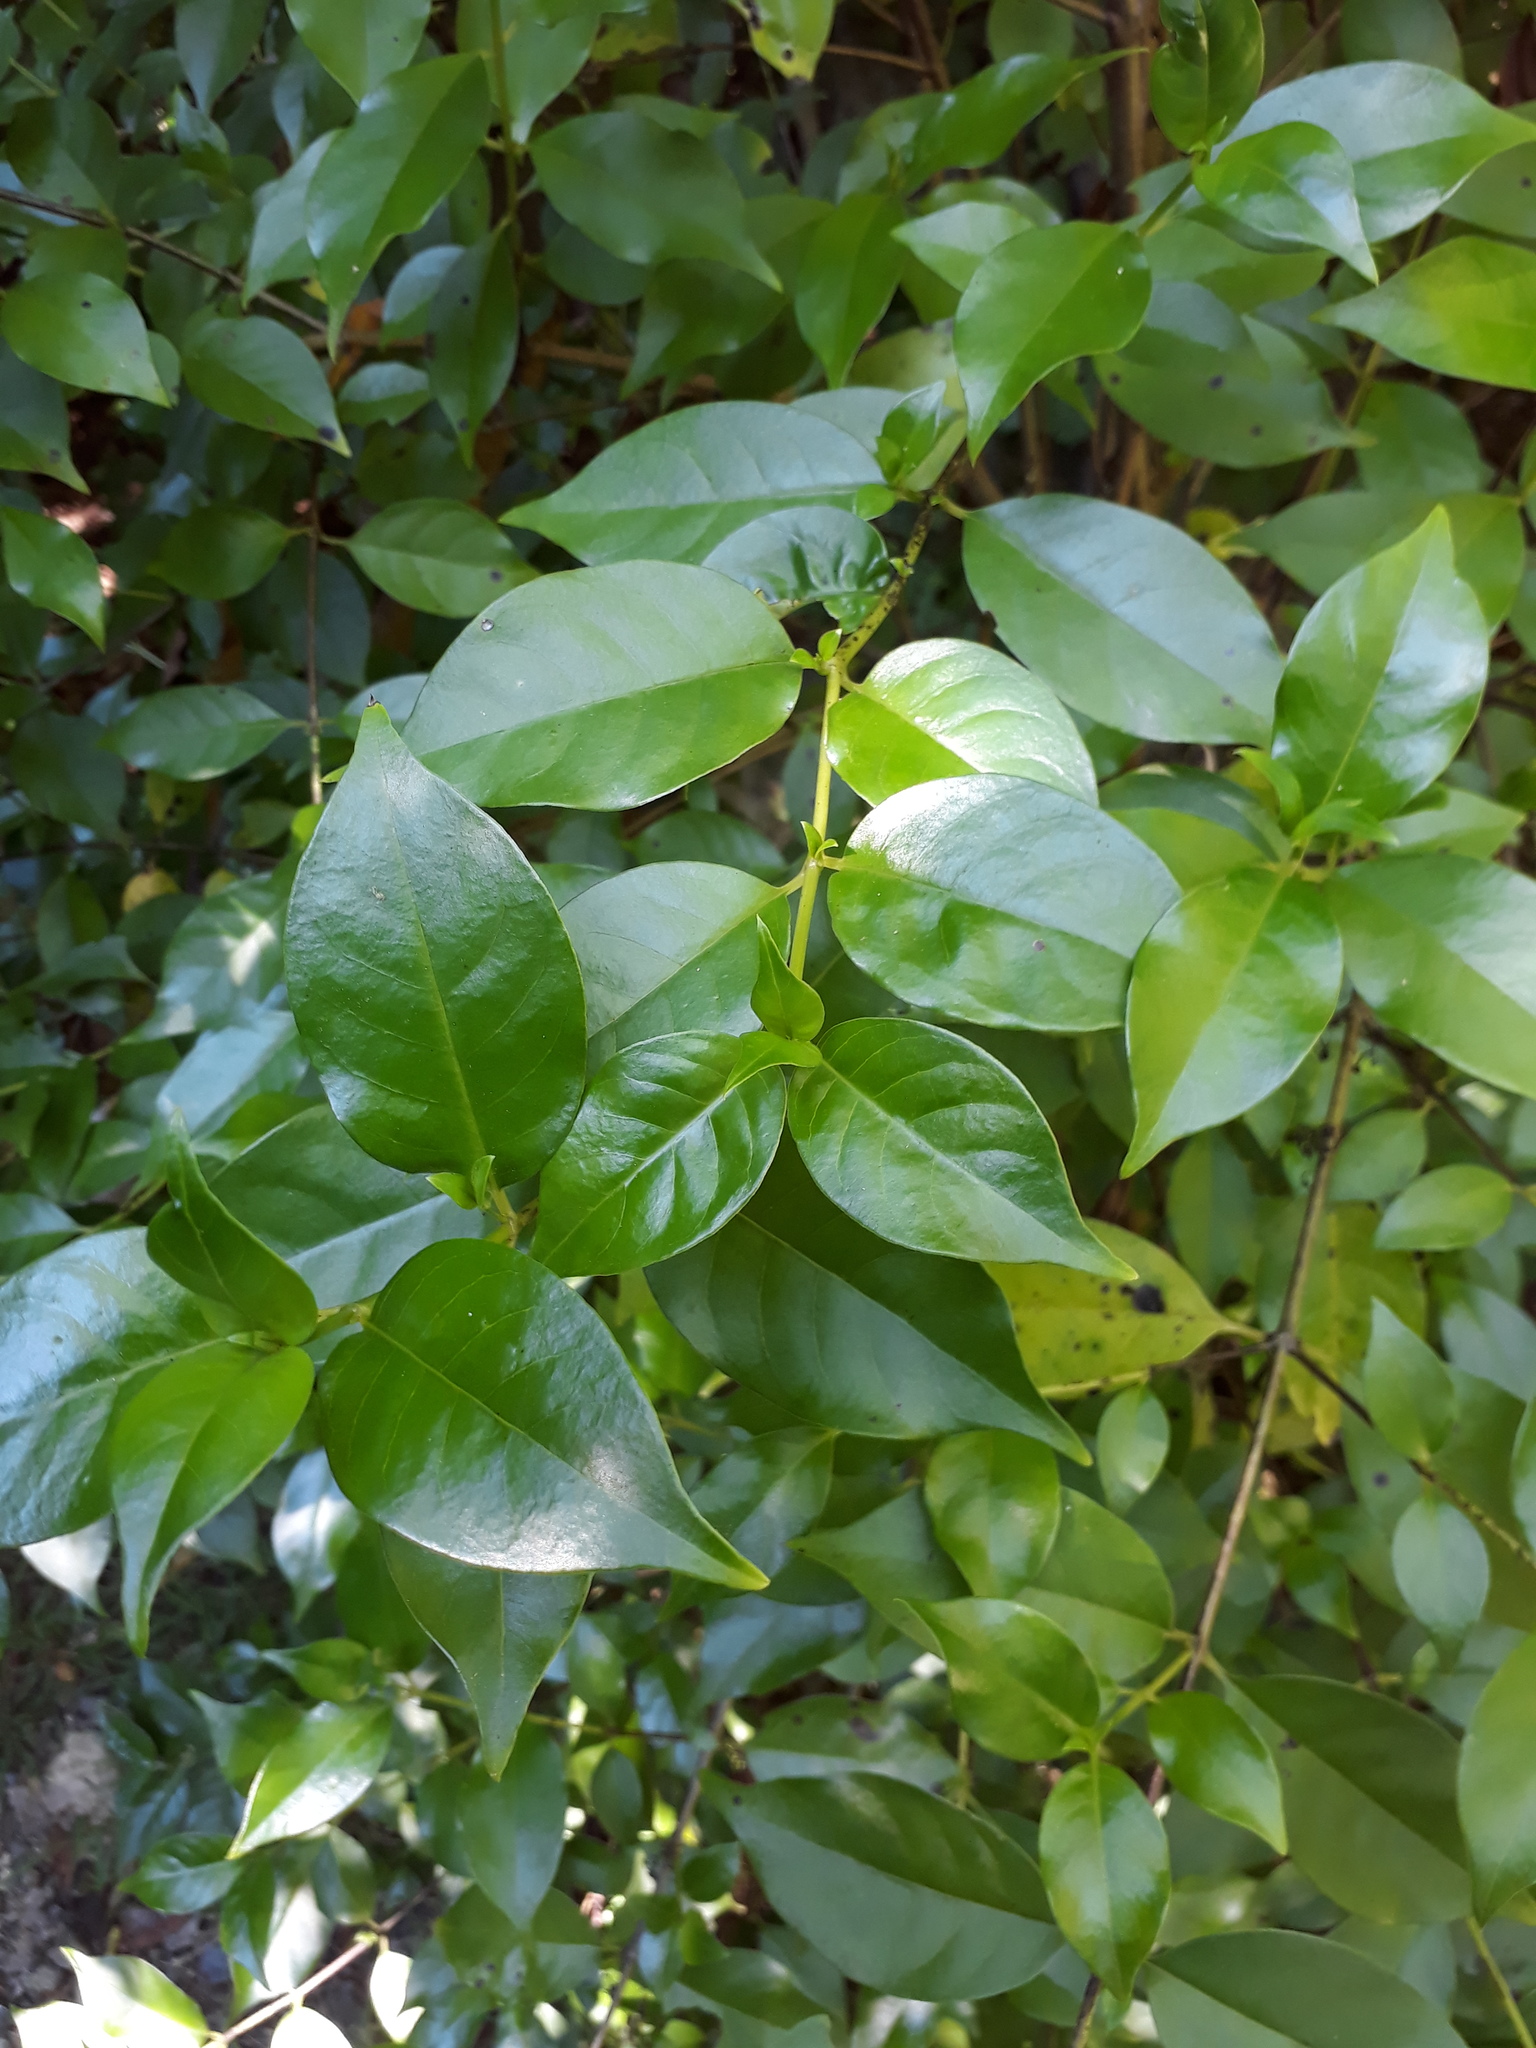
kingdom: Plantae
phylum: Tracheophyta
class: Magnoliopsida
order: Gentianales
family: Loganiaceae
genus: Geniostoma
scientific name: Geniostoma ligustrifolium
